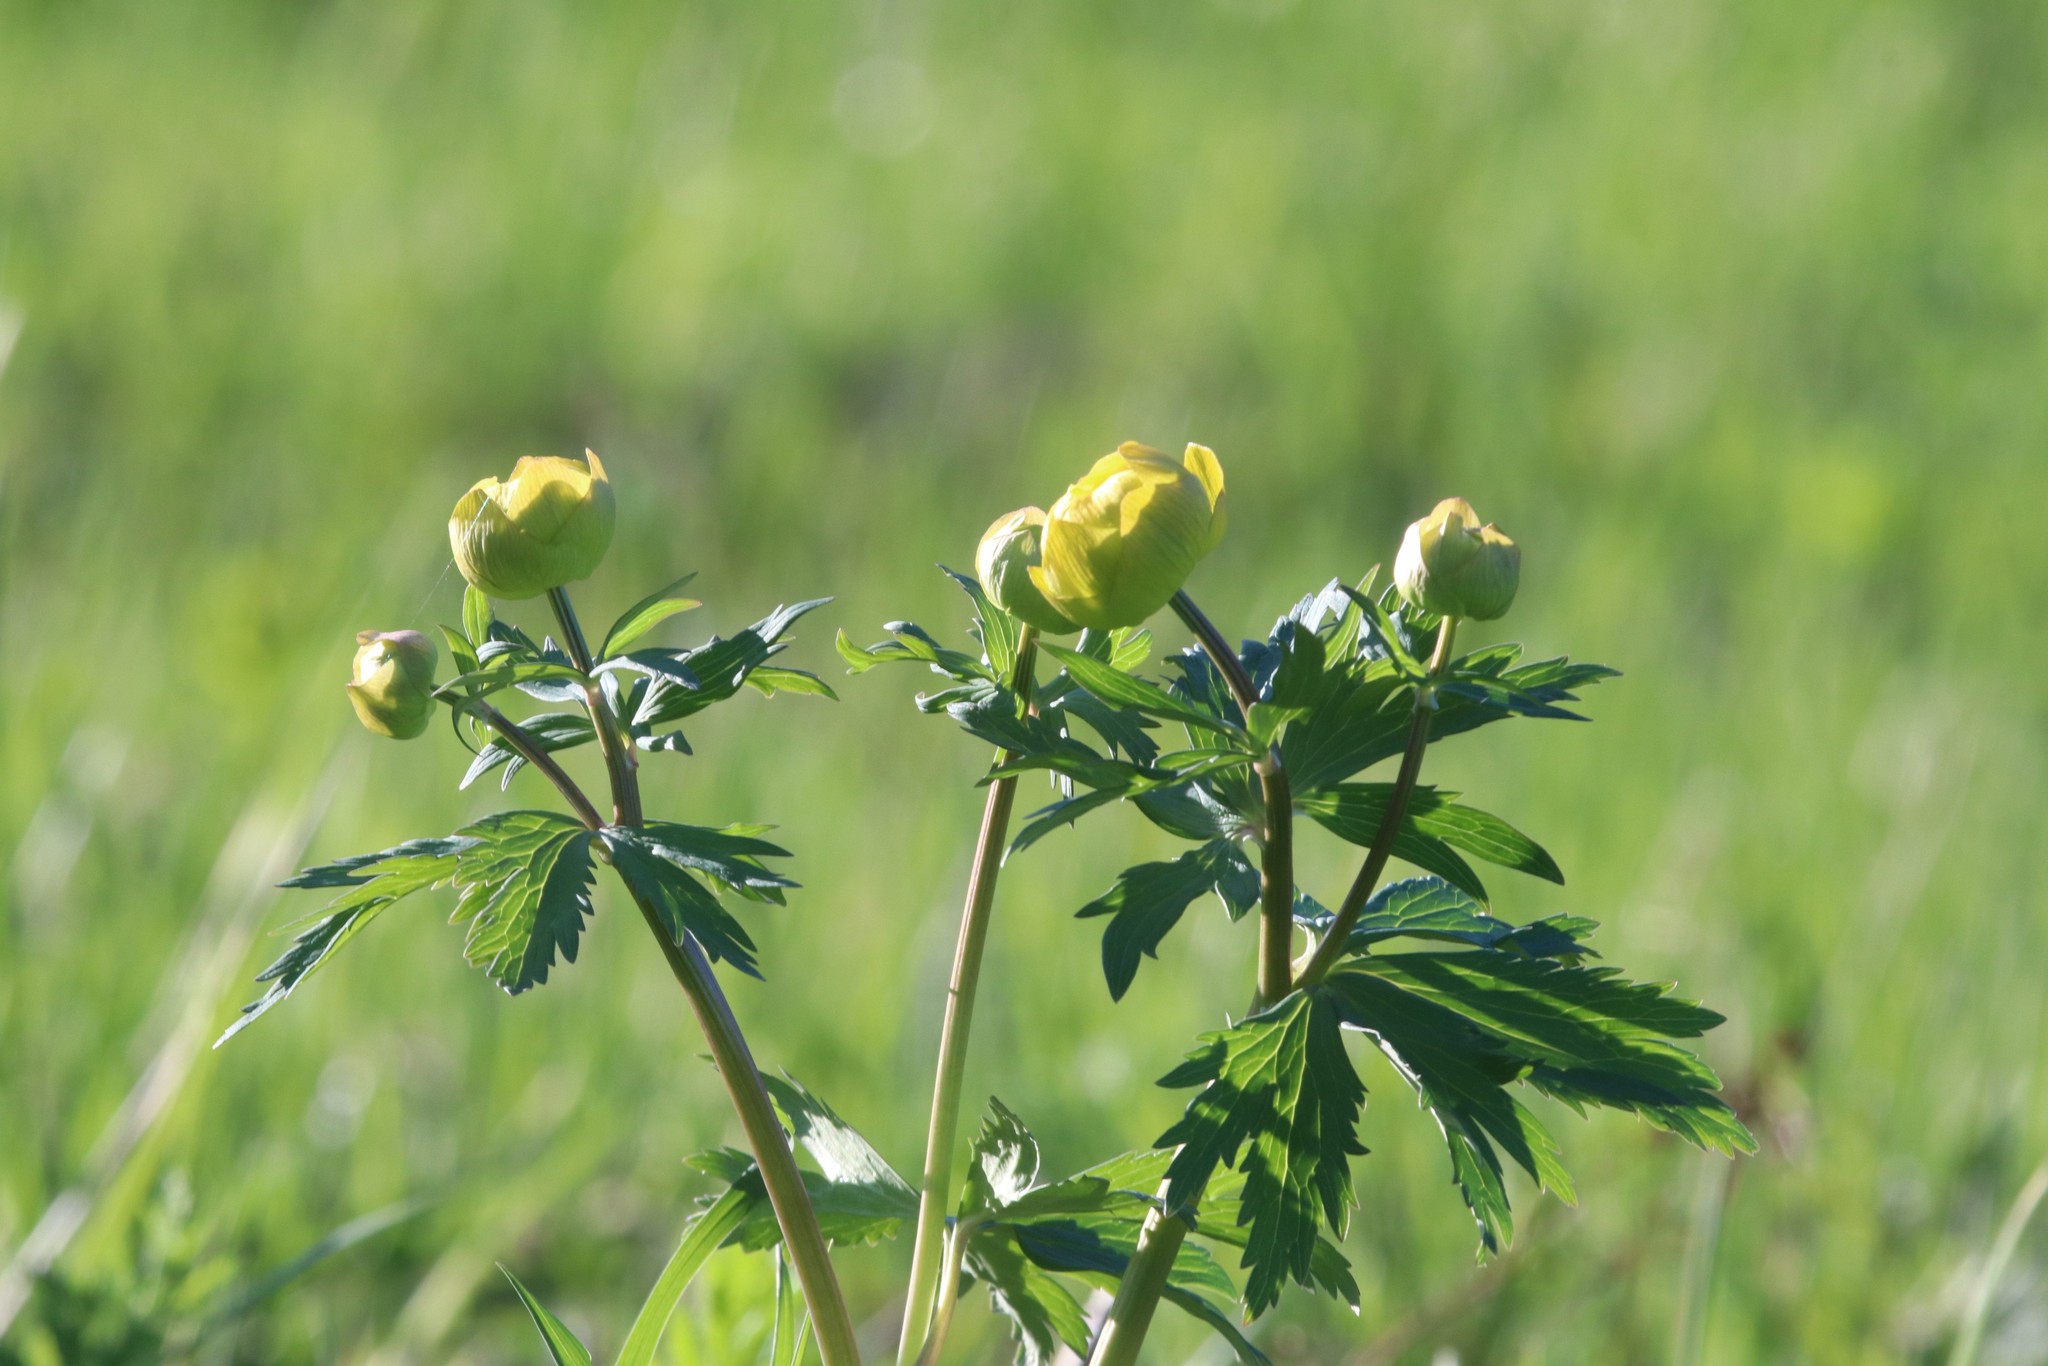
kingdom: Plantae
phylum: Tracheophyta
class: Magnoliopsida
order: Ranunculales
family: Ranunculaceae
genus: Trollius
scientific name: Trollius europaeus
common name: European globeflower
